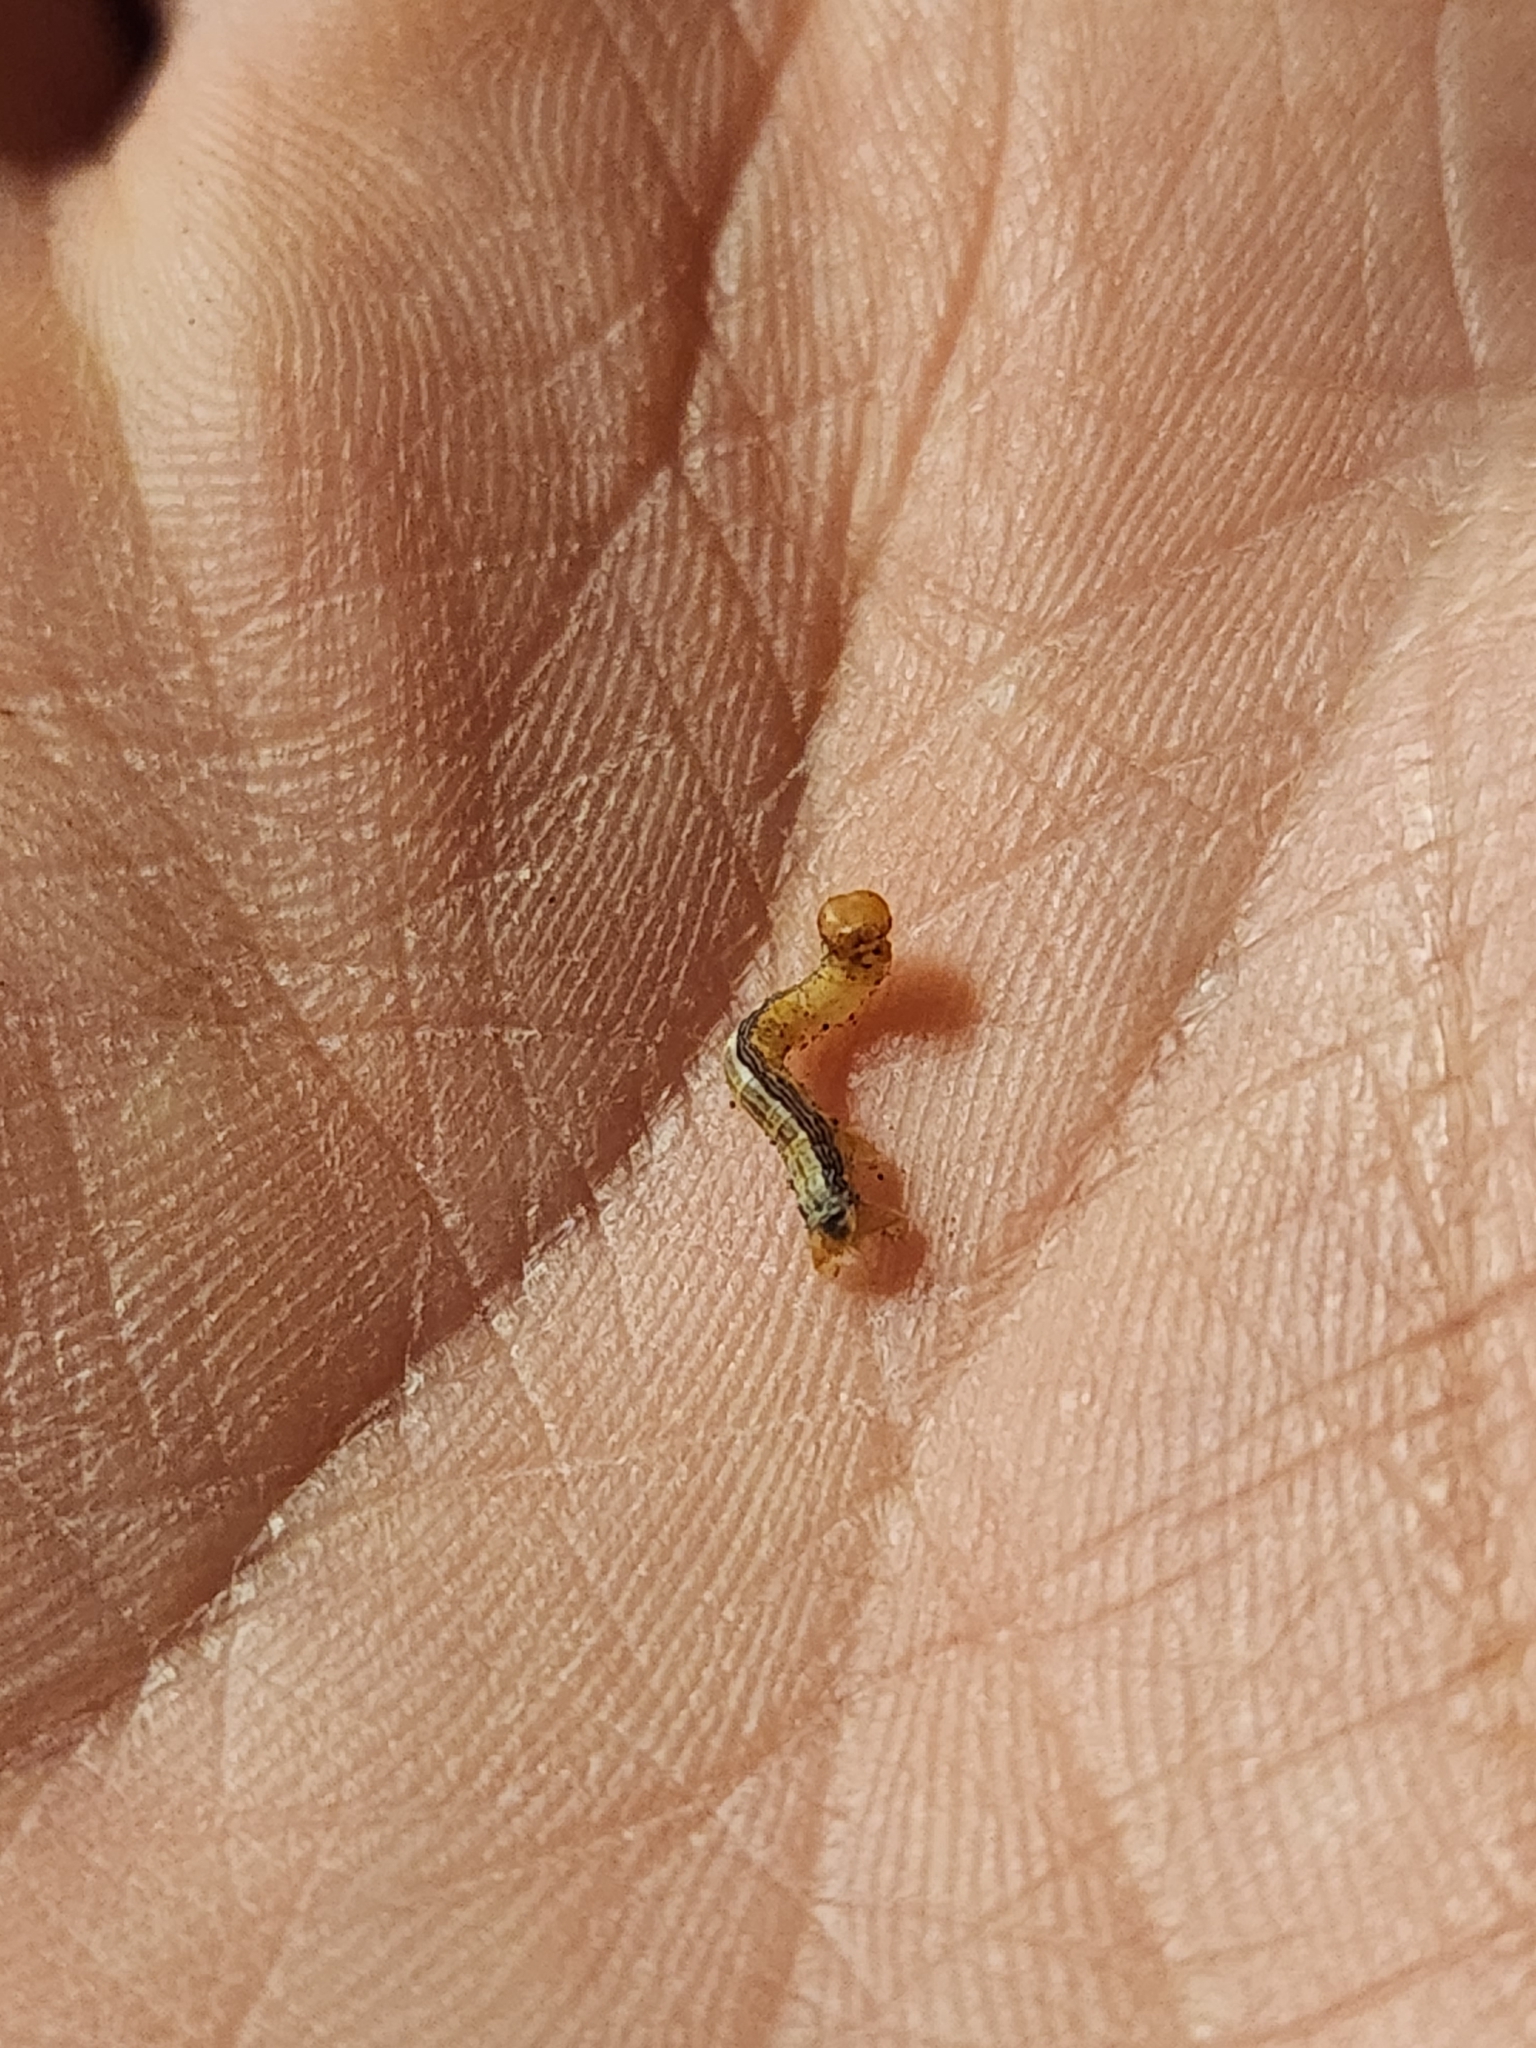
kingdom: Animalia
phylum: Arthropoda
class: Insecta
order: Lepidoptera
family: Notodontidae
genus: Phryganidia
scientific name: Phryganidia californica
